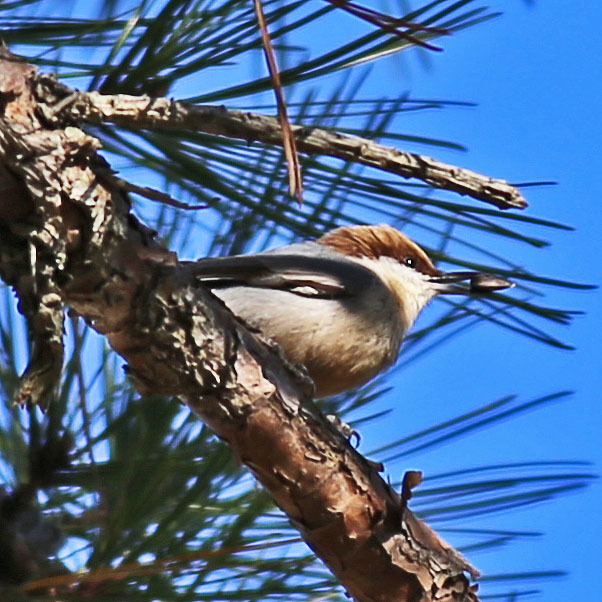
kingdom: Animalia
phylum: Chordata
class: Aves
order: Passeriformes
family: Sittidae
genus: Sitta
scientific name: Sitta pusilla
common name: Brown-headed nuthatch
